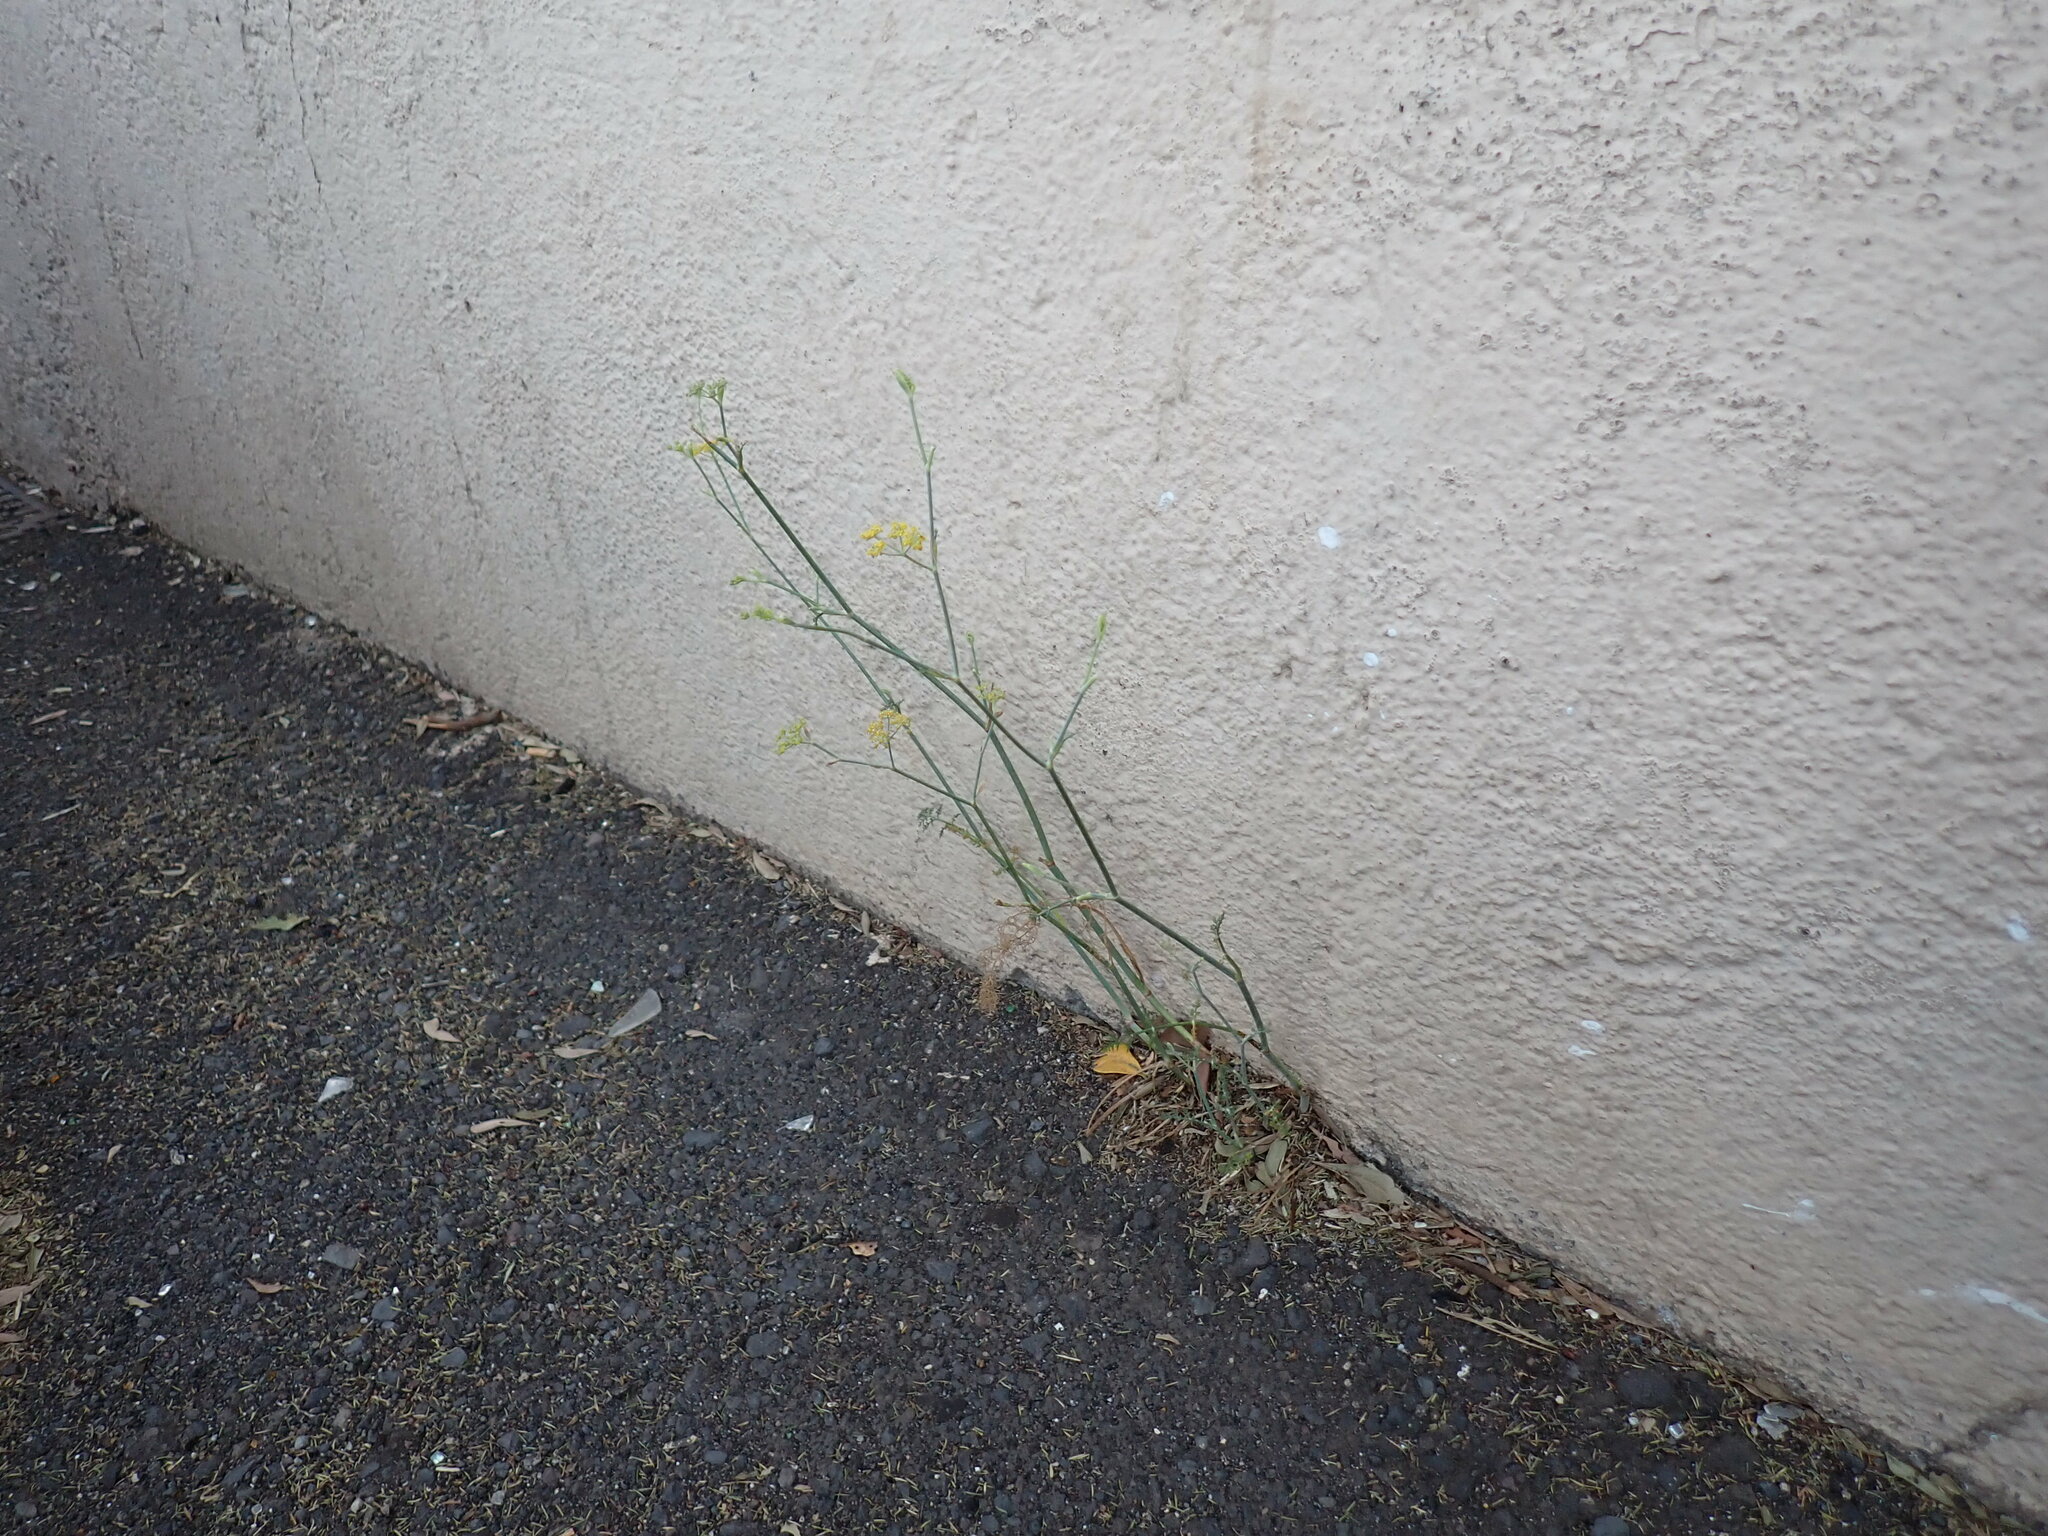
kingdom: Plantae
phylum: Tracheophyta
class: Magnoliopsida
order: Apiales
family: Apiaceae
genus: Foeniculum
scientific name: Foeniculum vulgare
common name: Fennel
